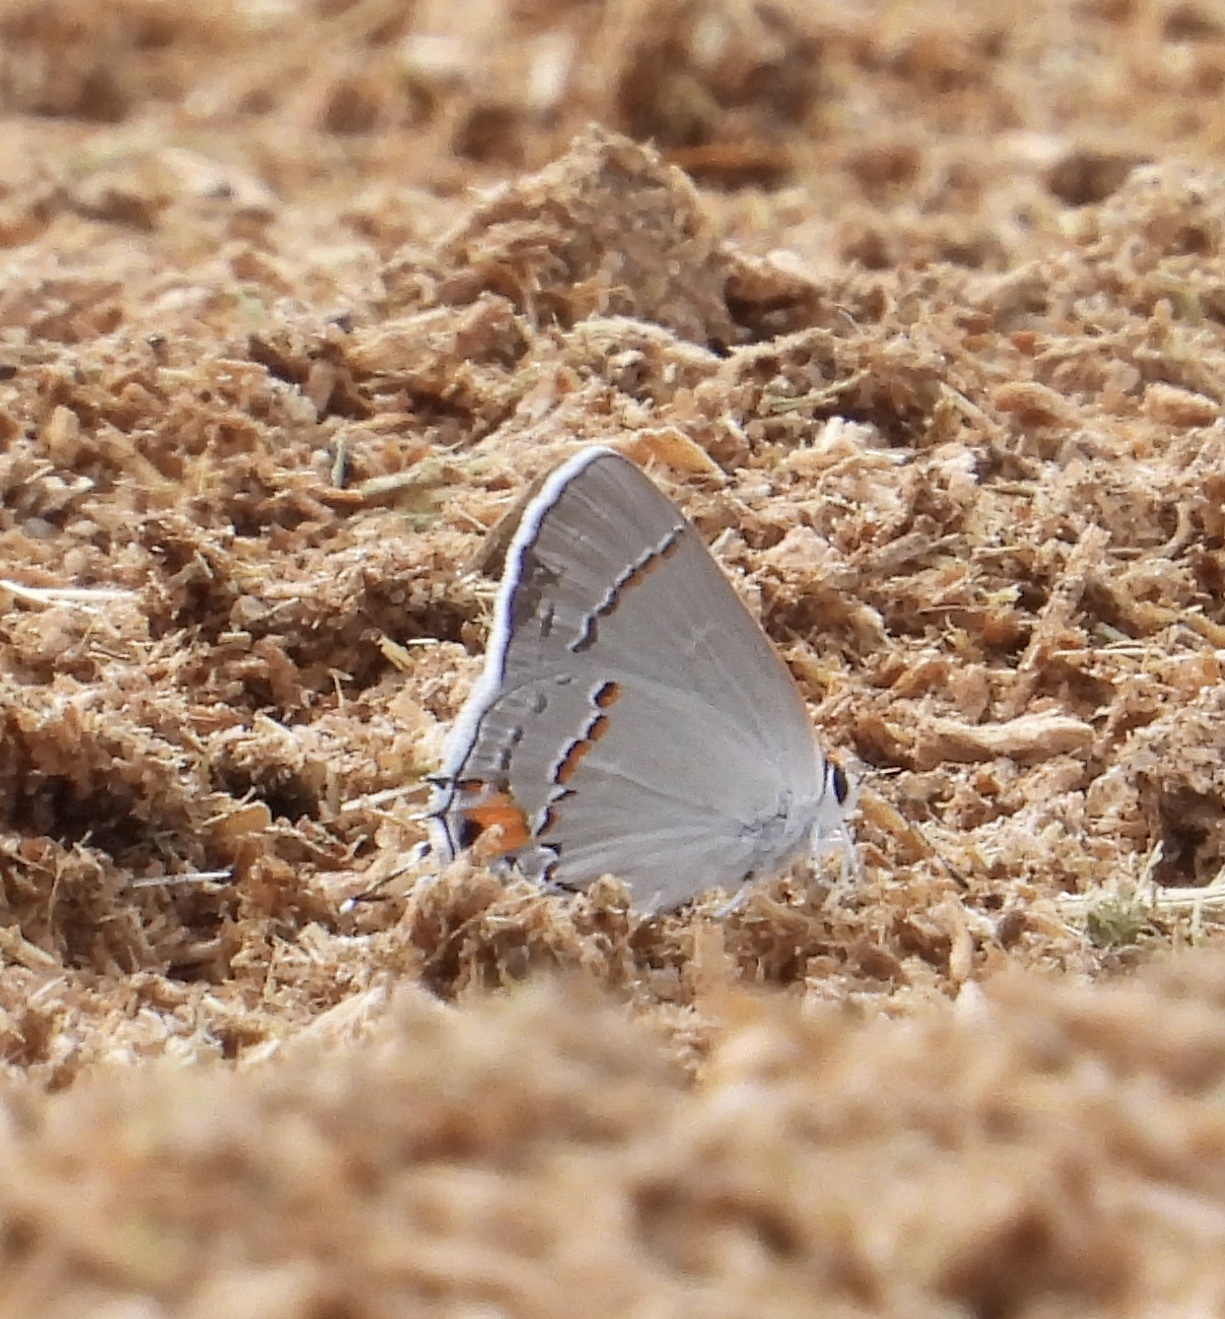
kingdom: Animalia
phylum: Arthropoda
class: Insecta
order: Lepidoptera
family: Lycaenidae
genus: Strymon
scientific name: Strymon melinus
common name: Gray hairstreak
